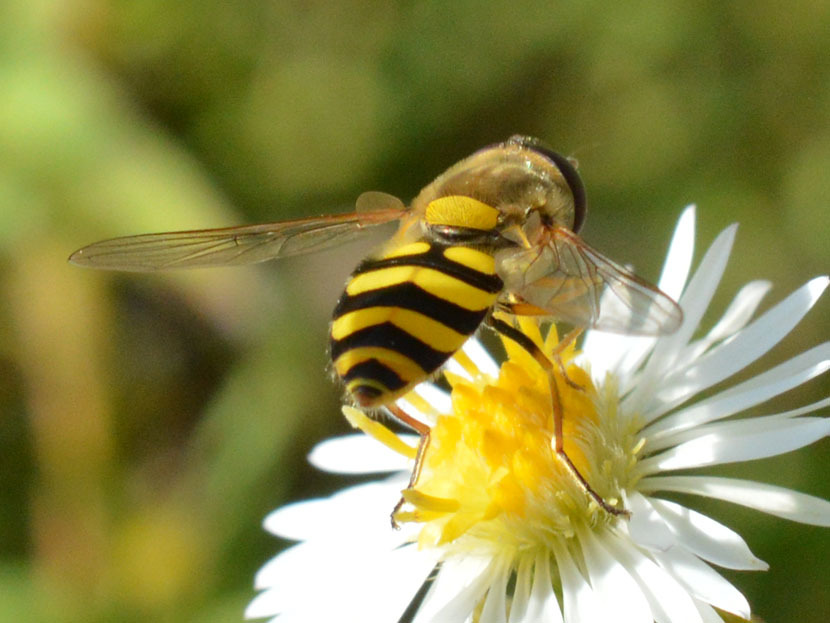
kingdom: Animalia
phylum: Arthropoda
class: Insecta
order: Diptera
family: Syrphidae
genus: Syrphus
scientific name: Syrphus
